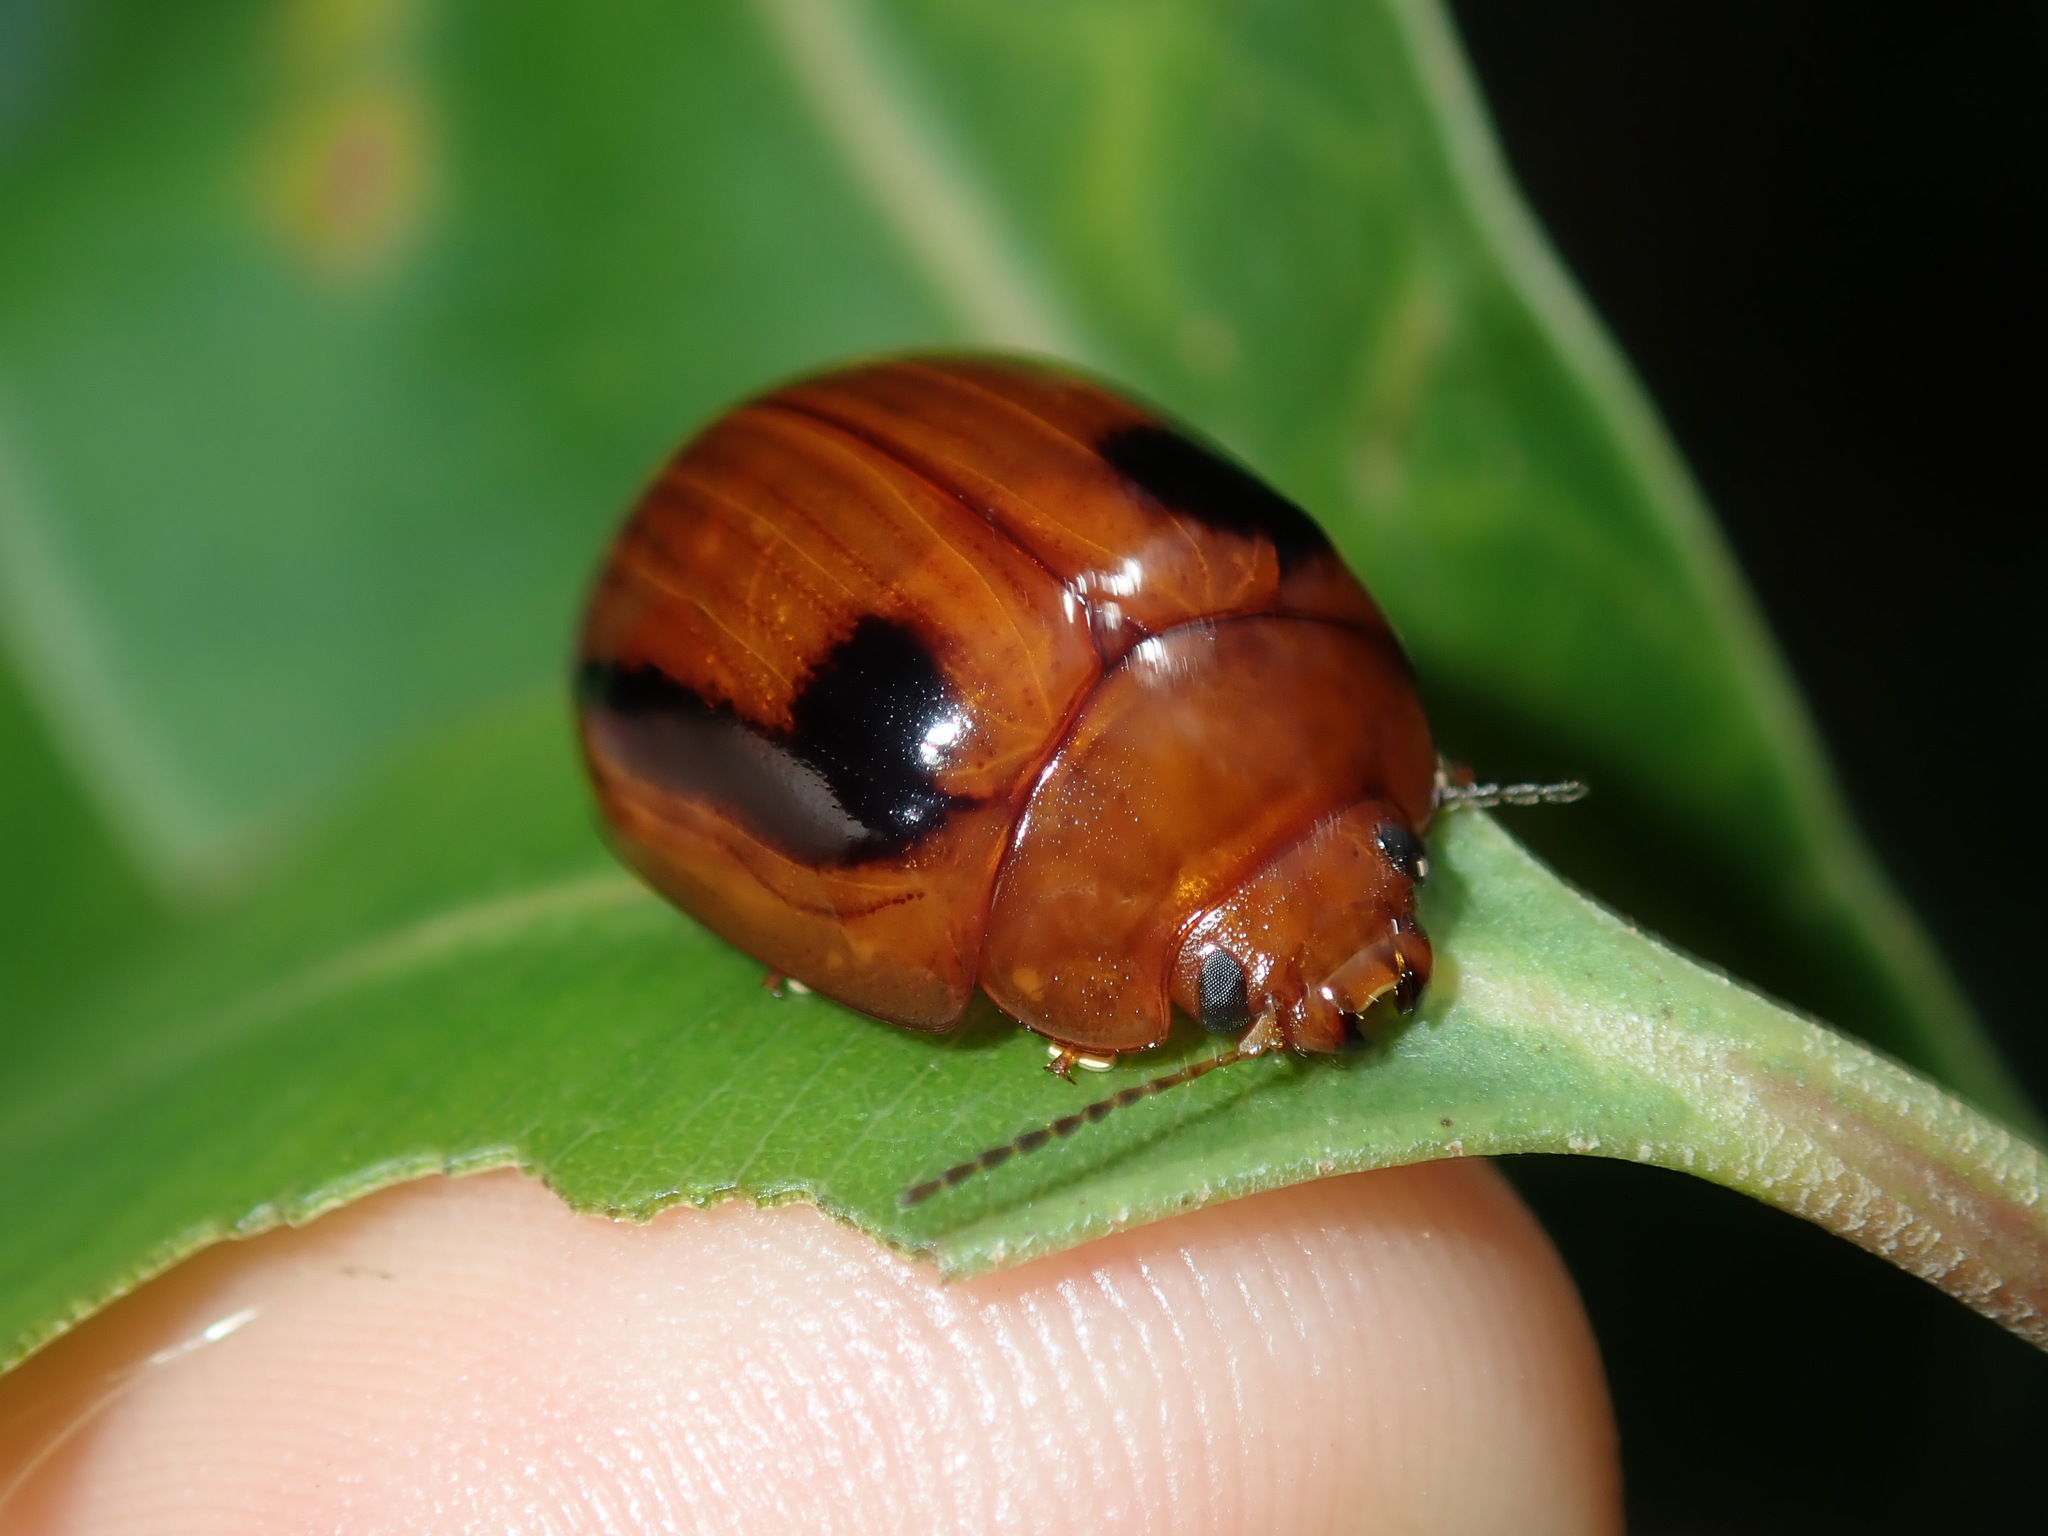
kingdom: Animalia
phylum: Arthropoda
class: Insecta
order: Coleoptera
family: Chrysomelidae
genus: Paropsisterna
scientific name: Paropsisterna
